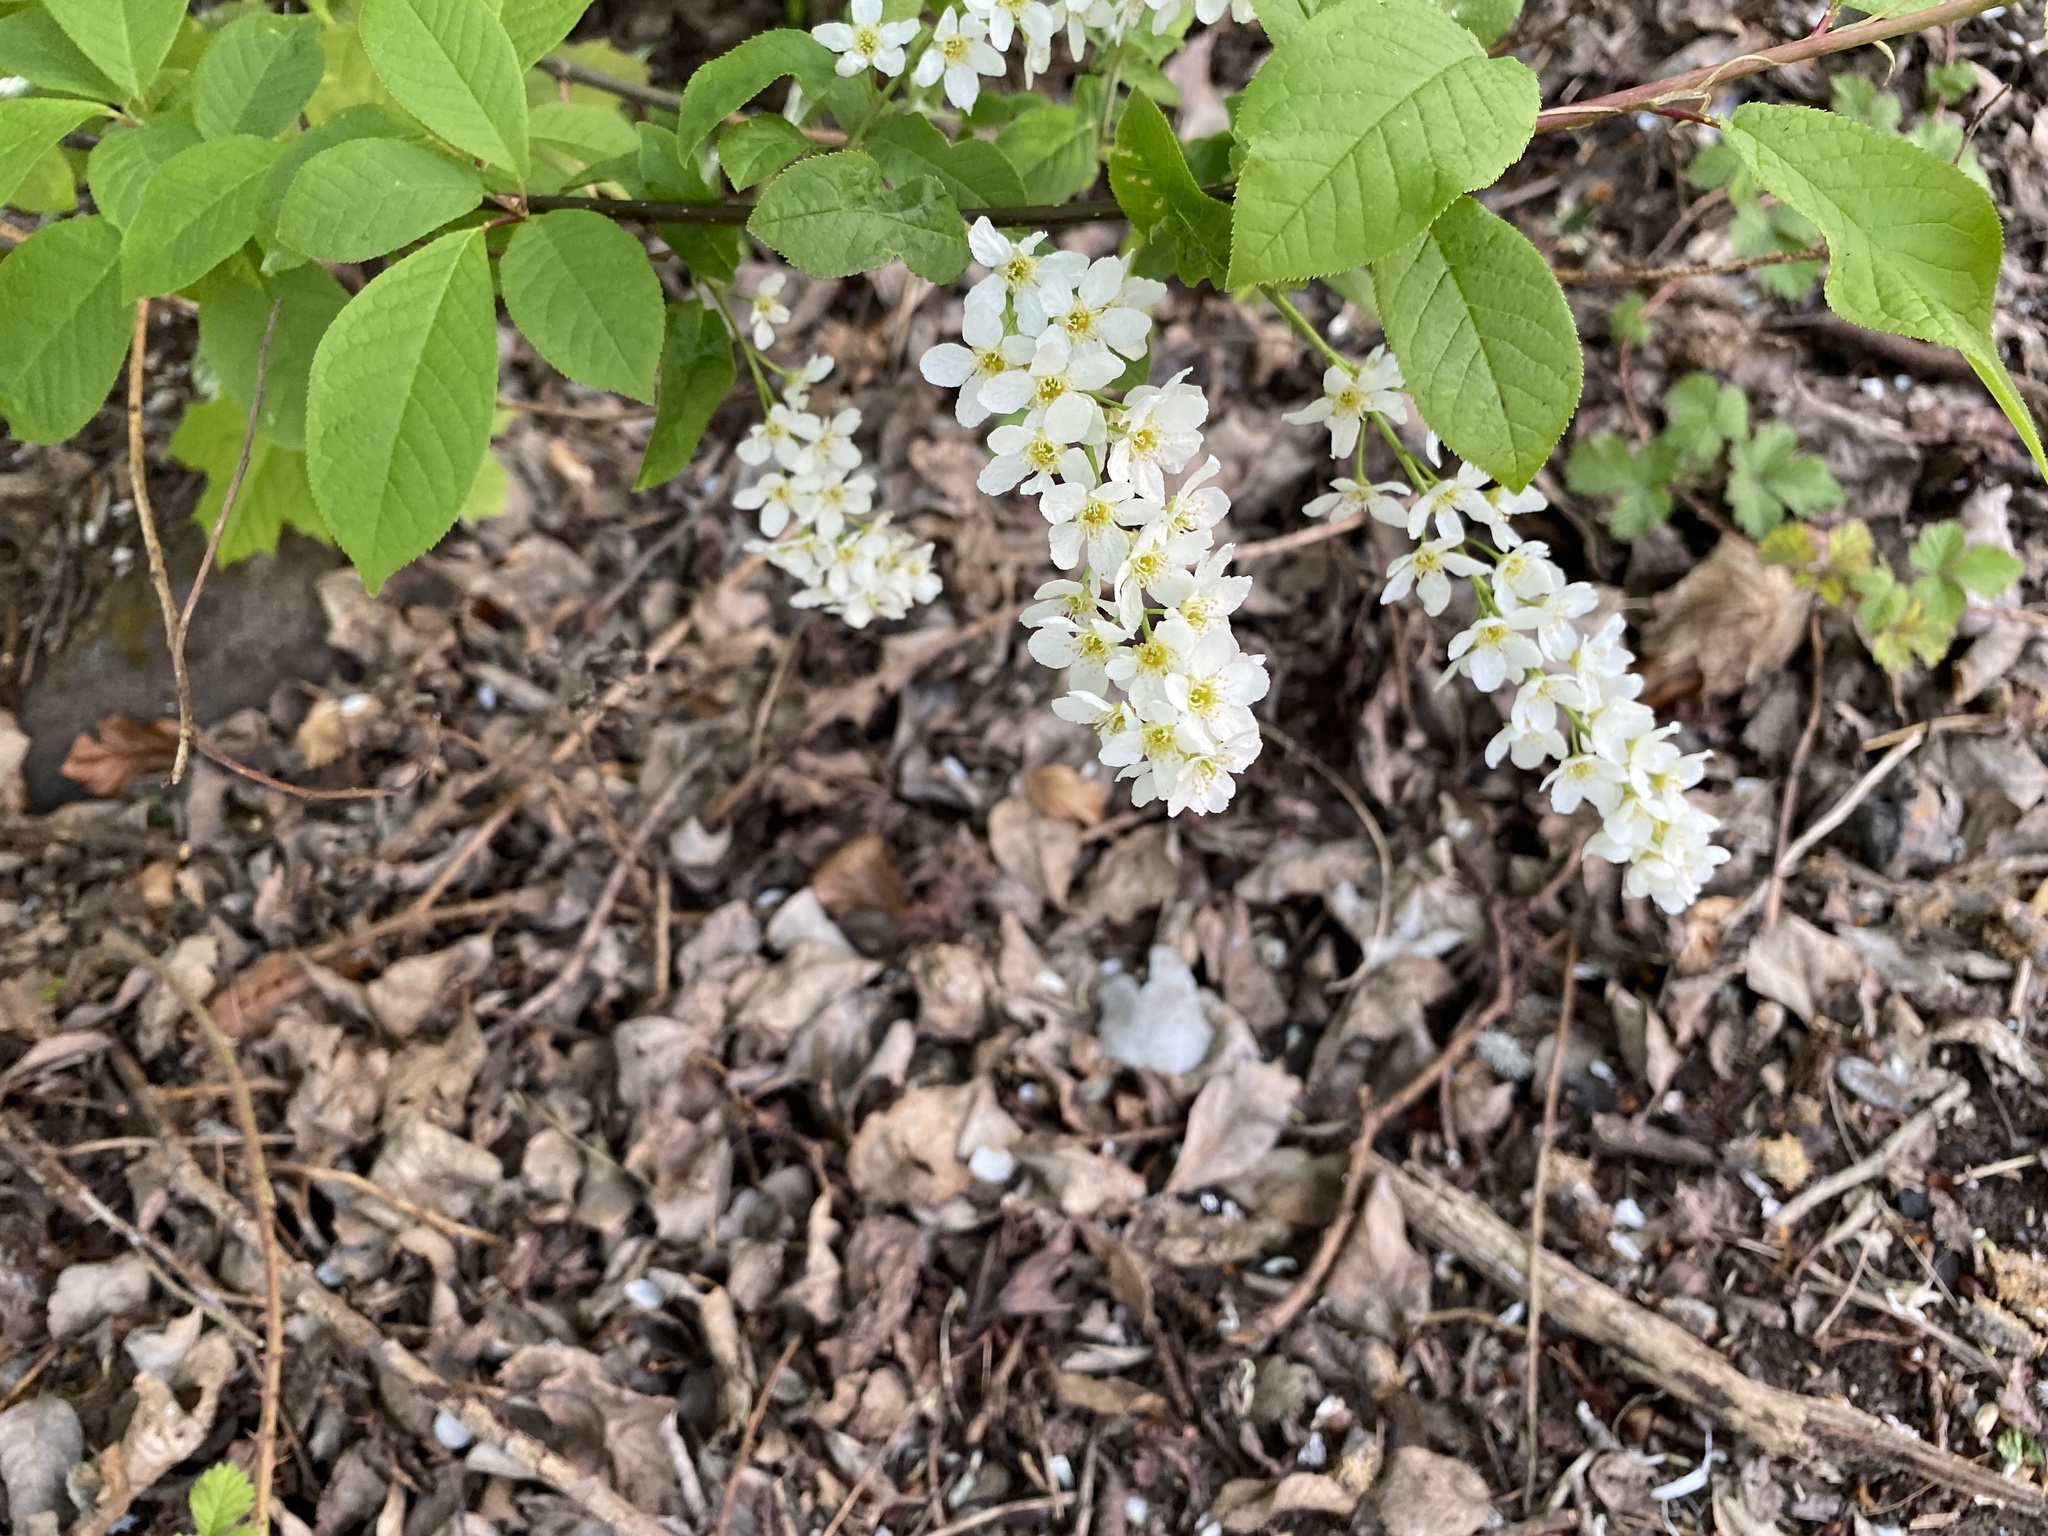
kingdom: Plantae
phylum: Tracheophyta
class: Magnoliopsida
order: Rosales
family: Rosaceae
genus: Prunus
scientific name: Prunus padus
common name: Bird cherry
